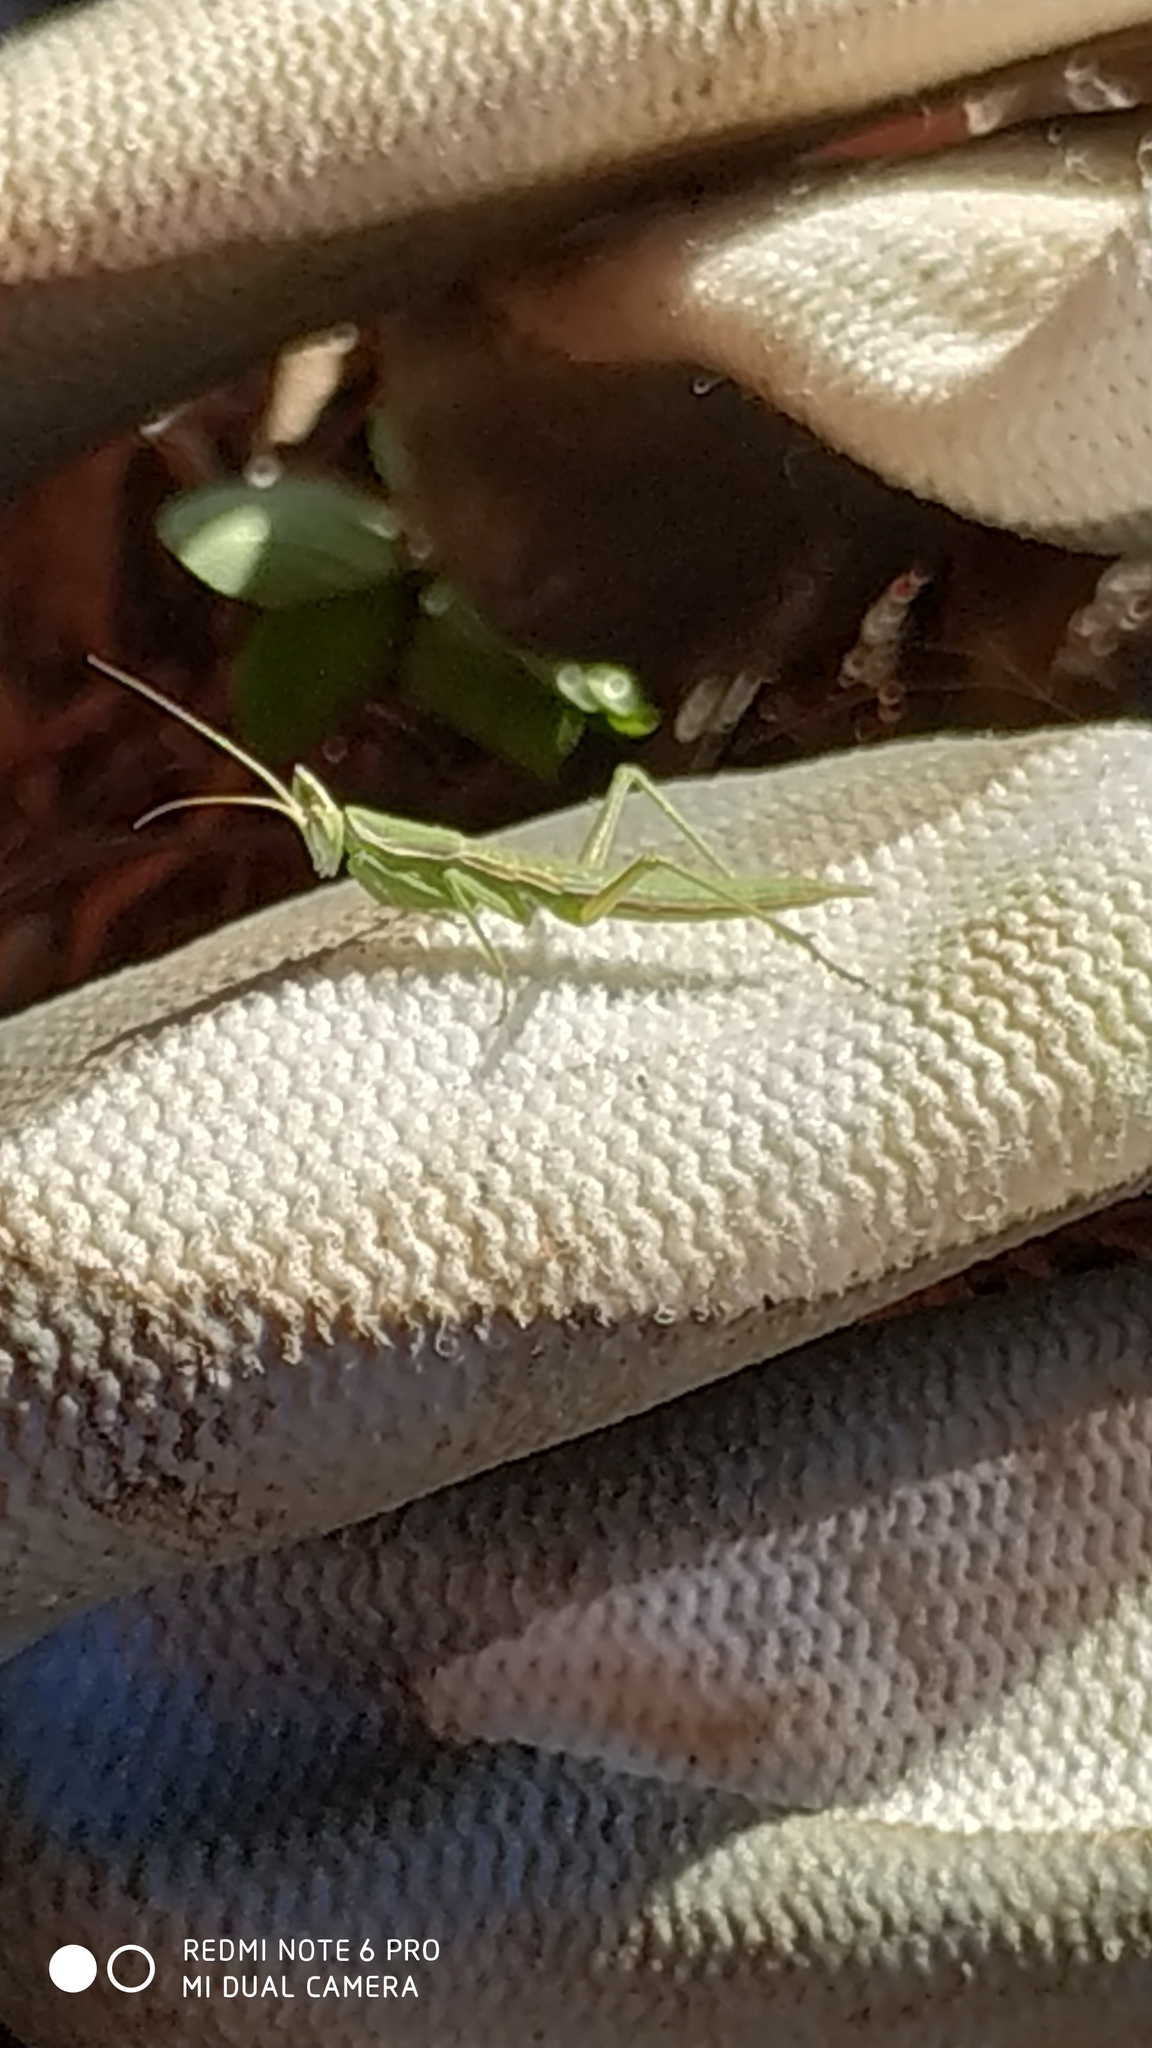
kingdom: Animalia
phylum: Arthropoda
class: Insecta
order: Mantodea
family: Amelidae
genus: Apteromantis
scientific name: Apteromantis aptera
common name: Wingless mantis
